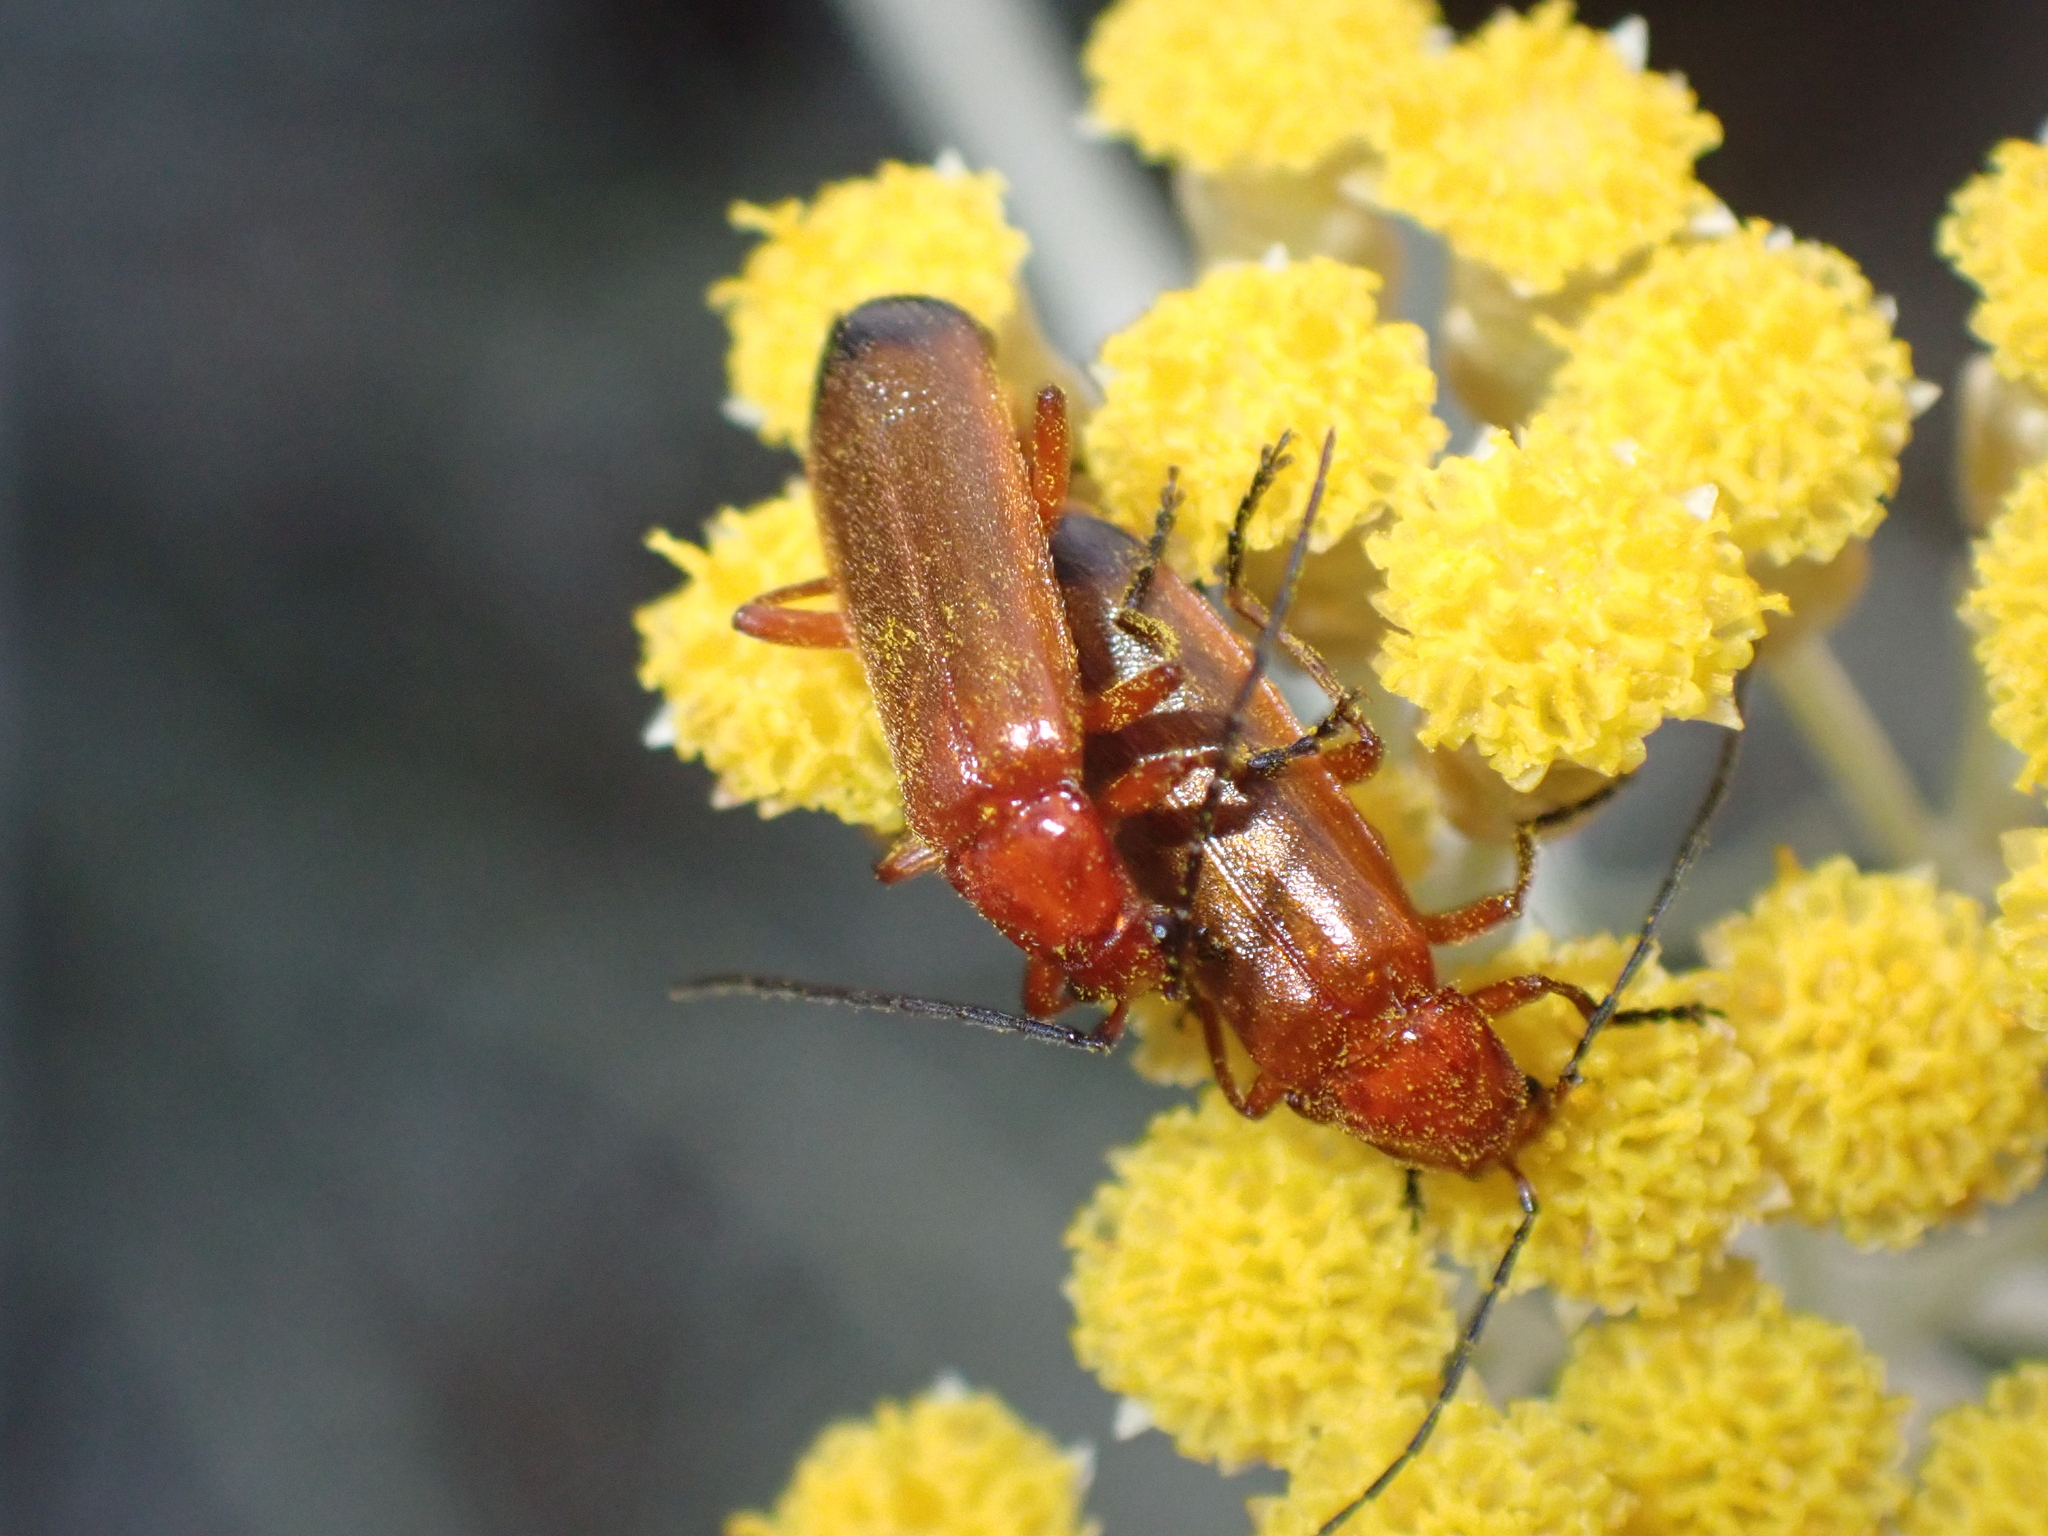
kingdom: Animalia
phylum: Arthropoda
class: Insecta
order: Coleoptera
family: Cantharidae
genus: Rhagonycha
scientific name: Rhagonycha fulva
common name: Common red soldier beetle
